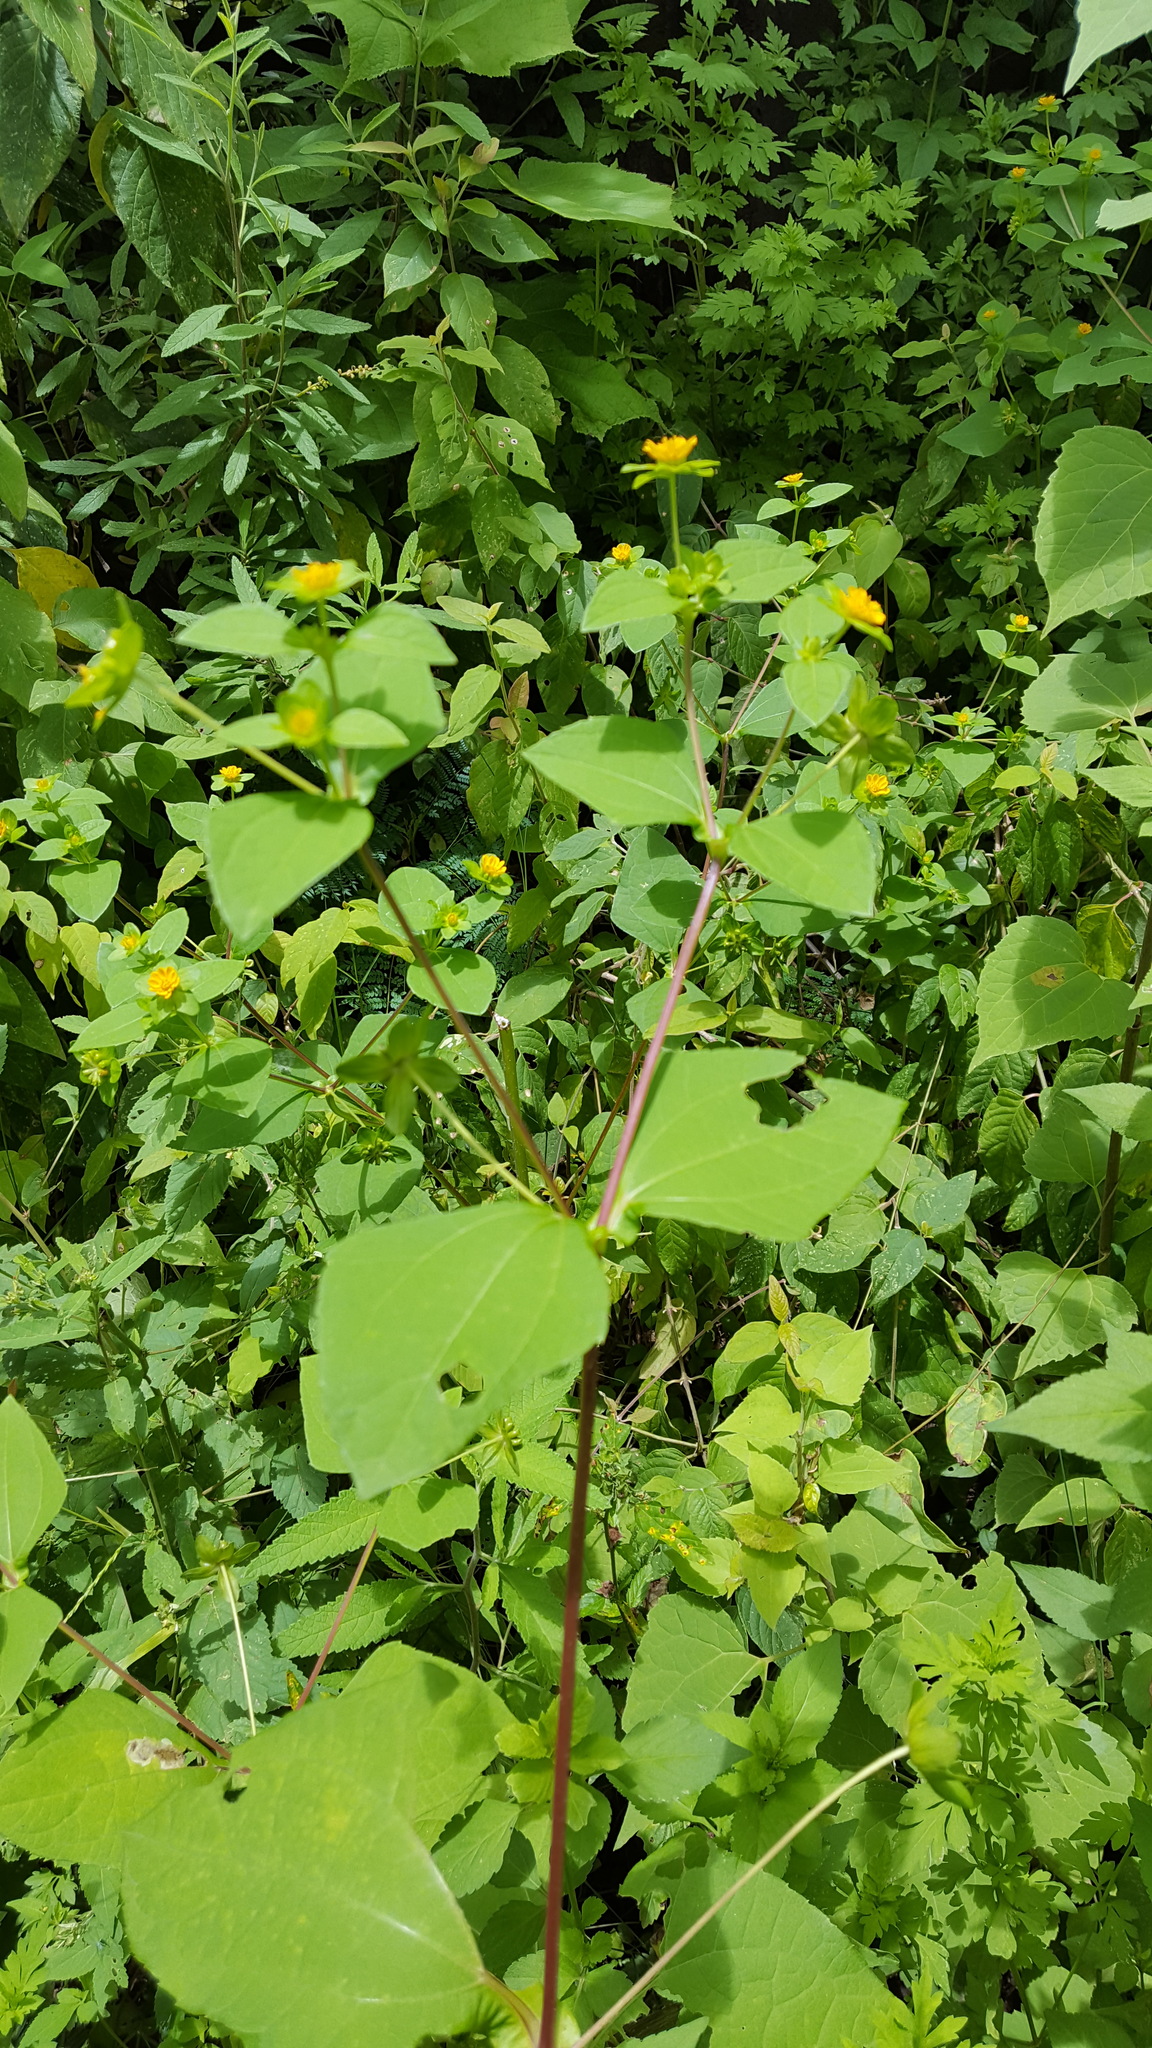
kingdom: Plantae
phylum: Tracheophyta
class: Magnoliopsida
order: Asterales
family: Asteraceae
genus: Melampodium
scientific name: Melampodium perfoliatum
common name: Perfoliate blackfoot
